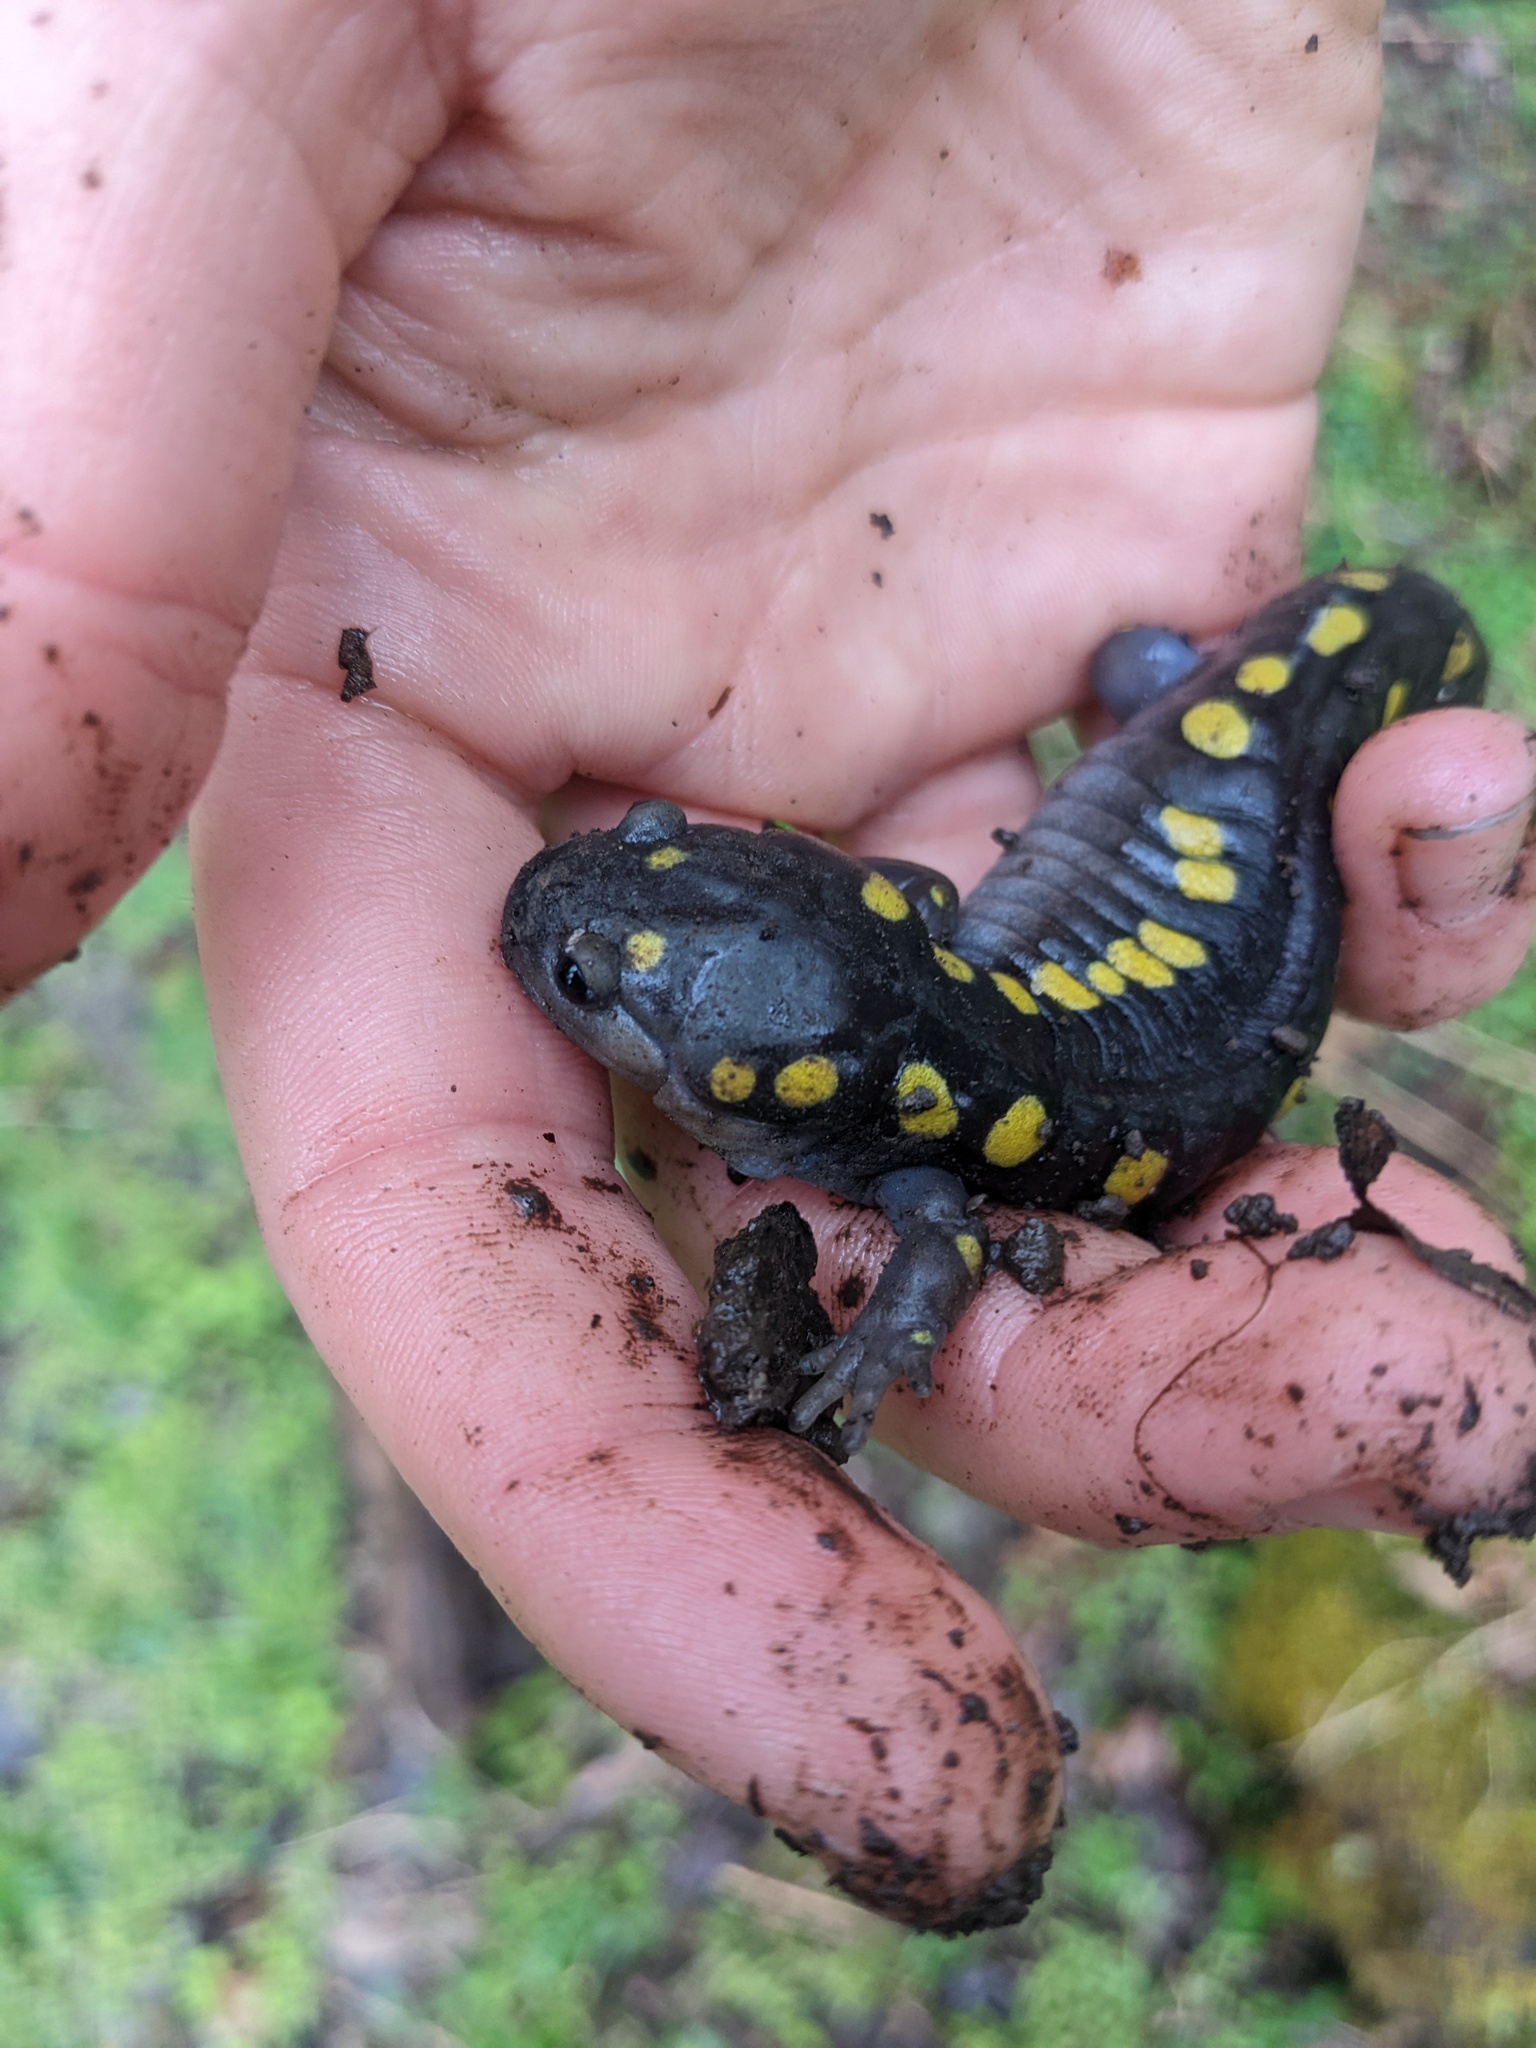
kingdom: Animalia
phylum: Chordata
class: Amphibia
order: Caudata
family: Ambystomatidae
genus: Ambystoma
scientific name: Ambystoma maculatum
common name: Spotted salamander
